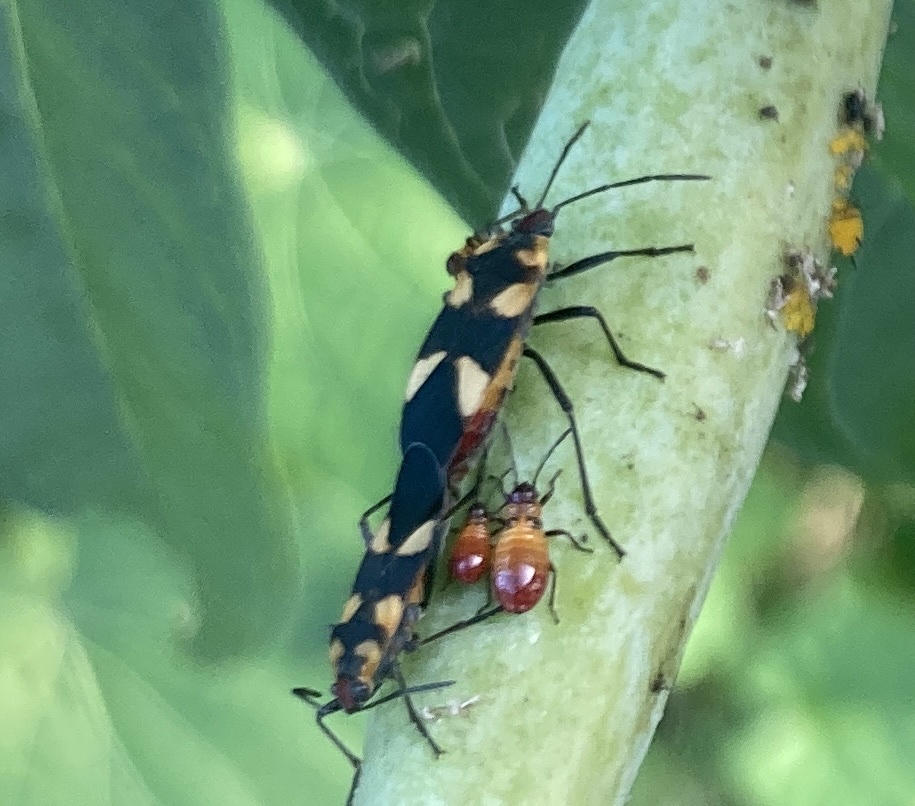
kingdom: Animalia
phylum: Arthropoda
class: Insecta
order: Hemiptera
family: Lygaeidae
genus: Oncopeltus
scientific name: Oncopeltus cingulifer
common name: Lygaeid bug
